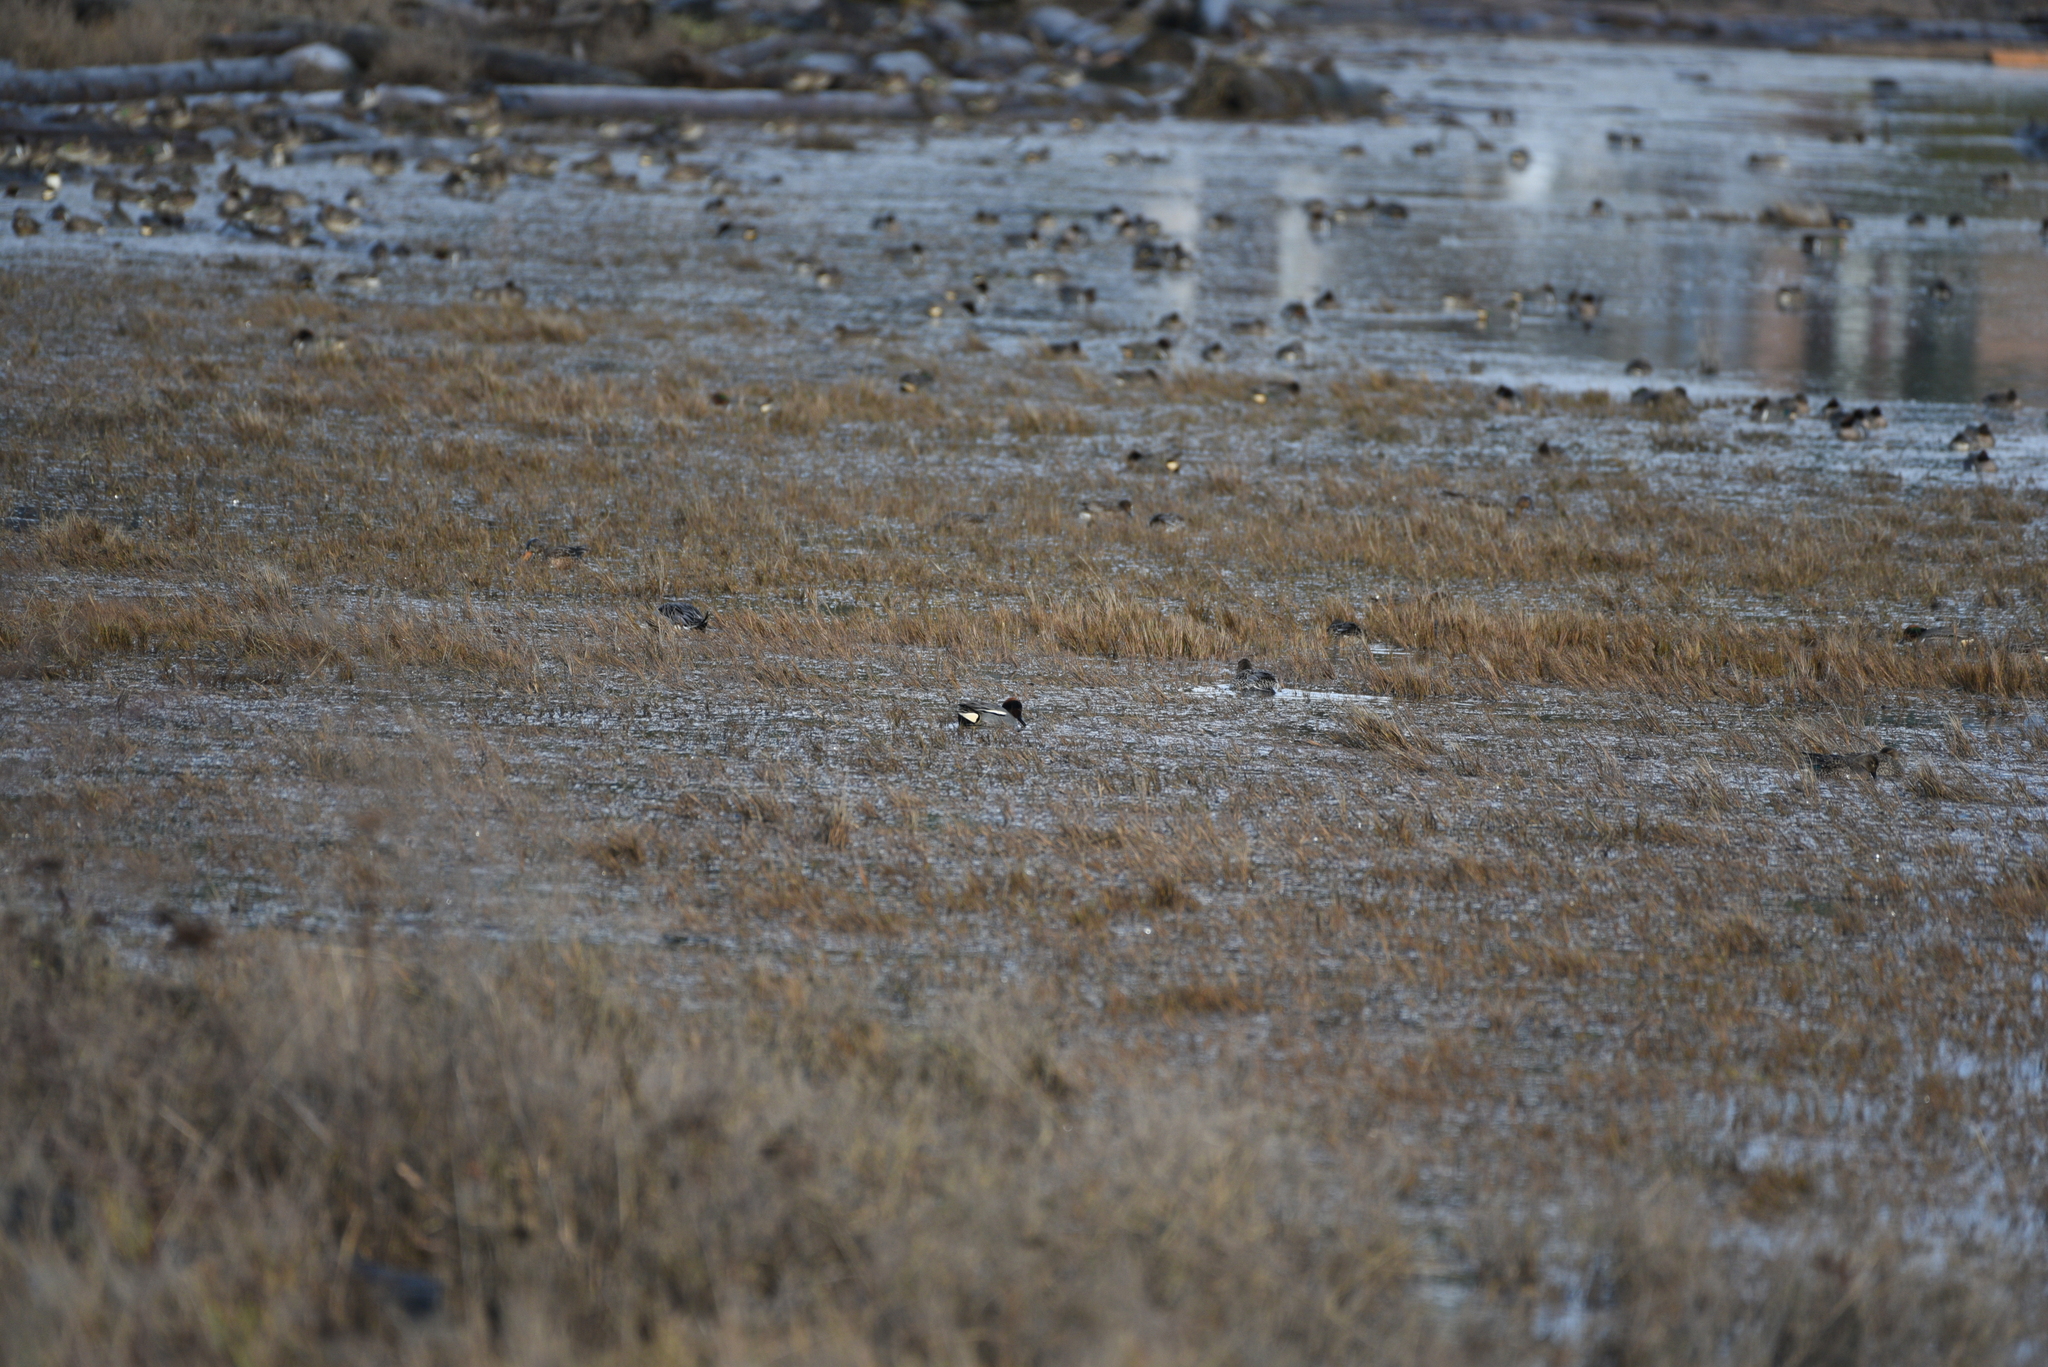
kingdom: Animalia
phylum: Chordata
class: Aves
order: Anseriformes
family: Anatidae
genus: Anas
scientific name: Anas
